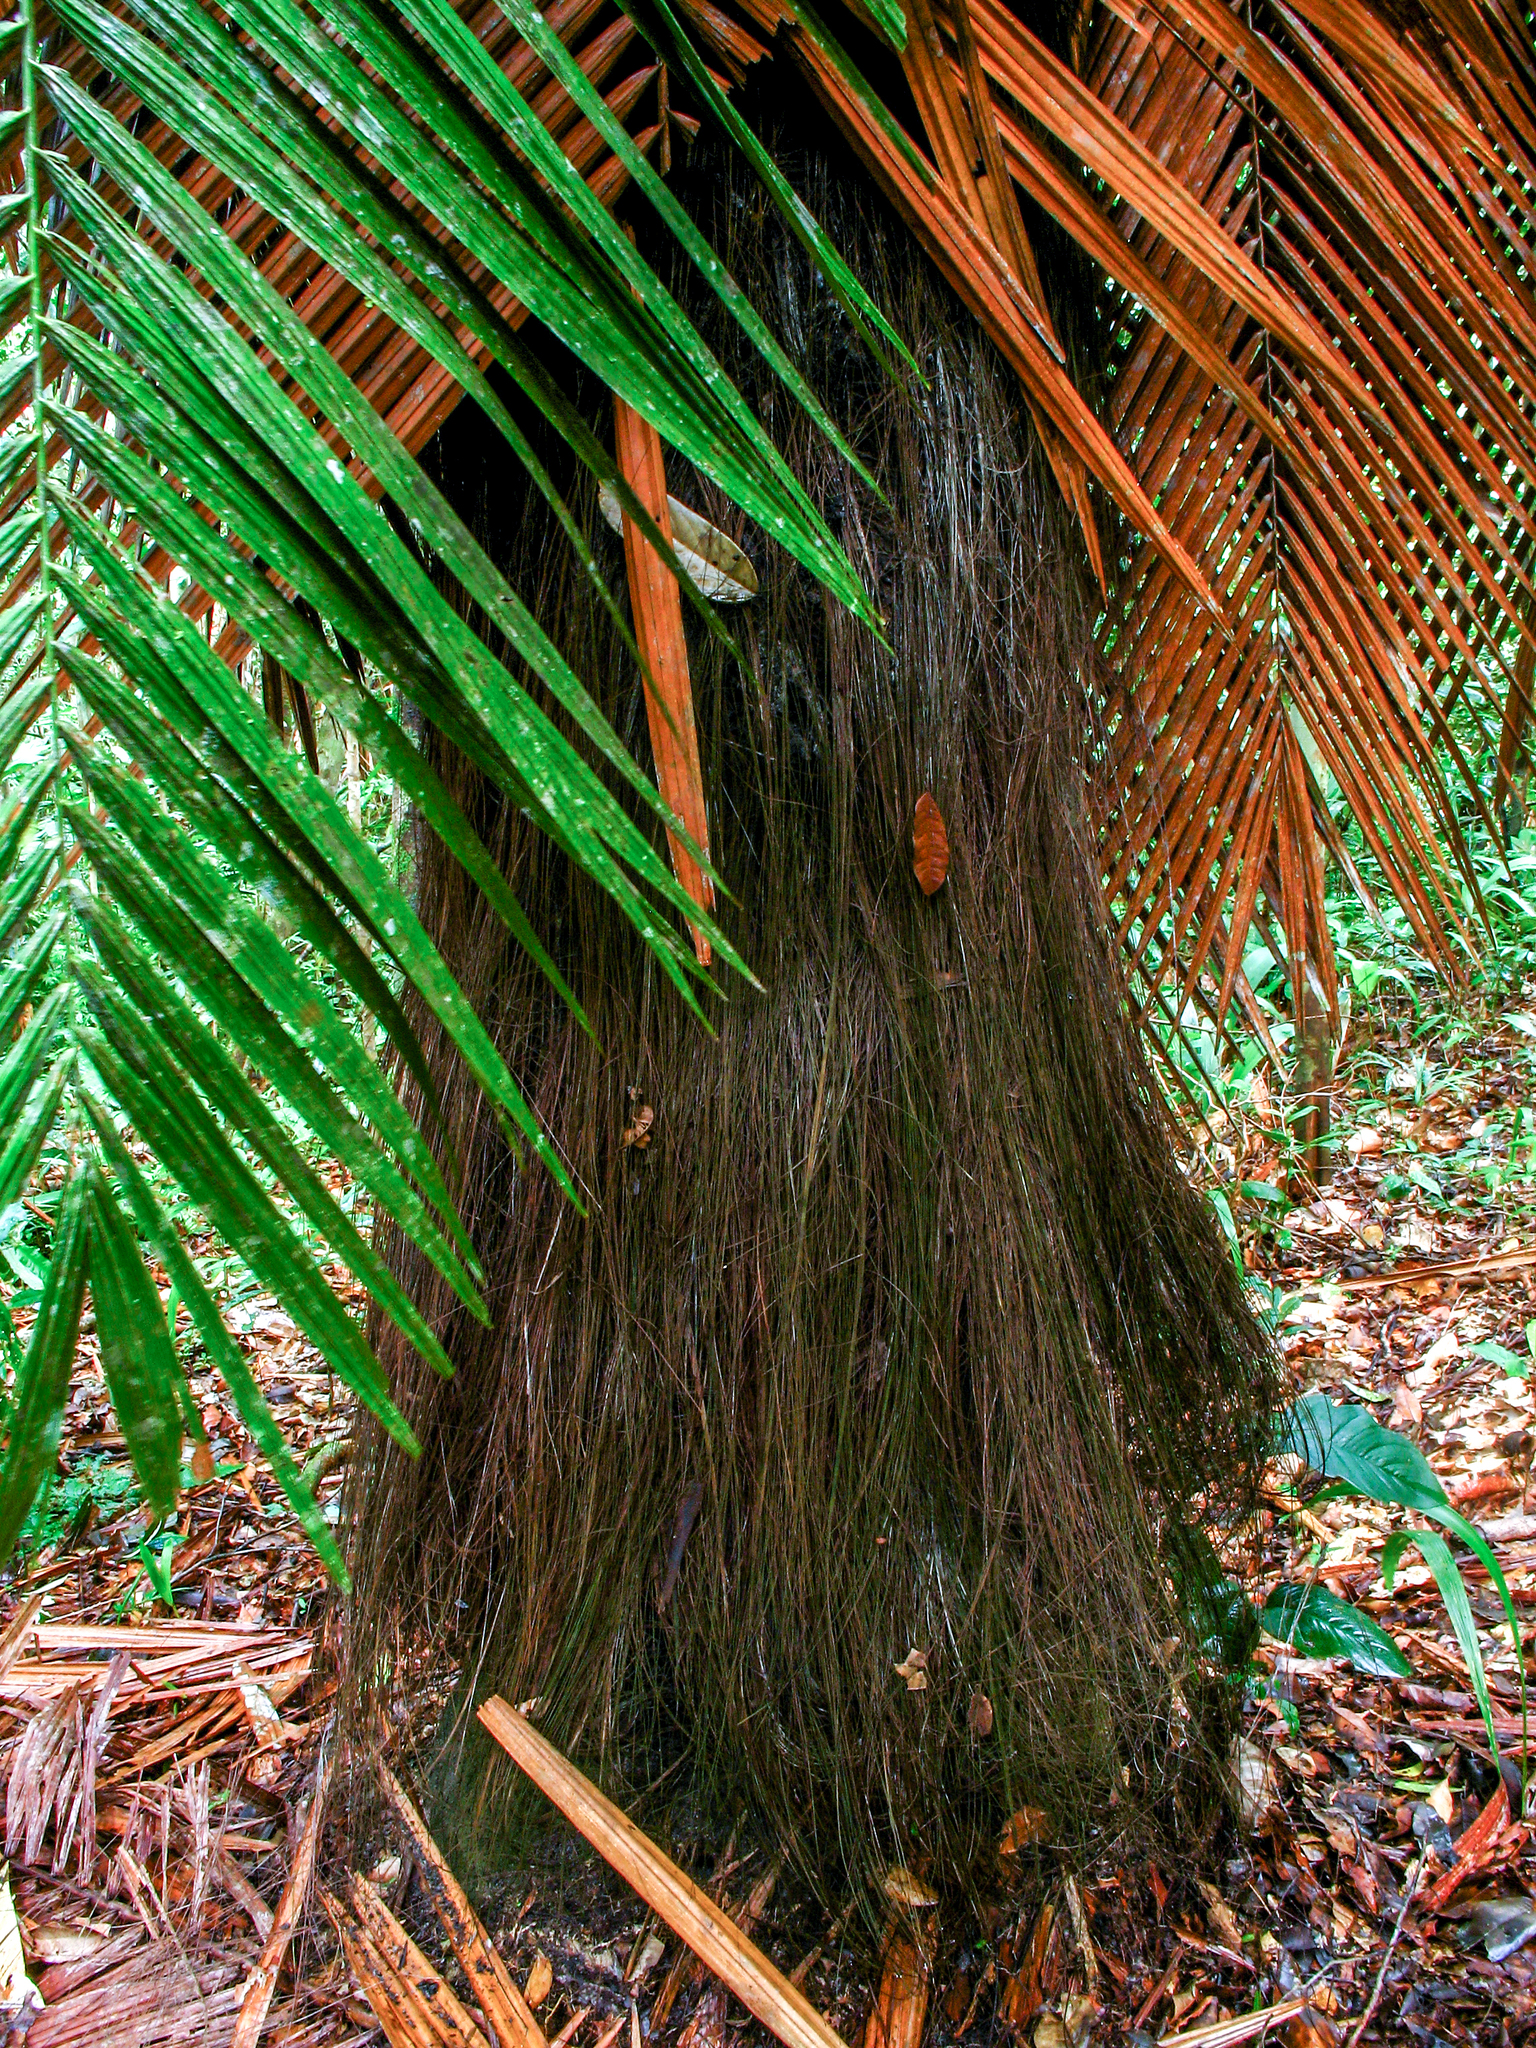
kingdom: Plantae
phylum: Tracheophyta
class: Liliopsida
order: Arecales
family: Arecaceae
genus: Leopoldinia
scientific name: Leopoldinia piassaba
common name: Piassaba
